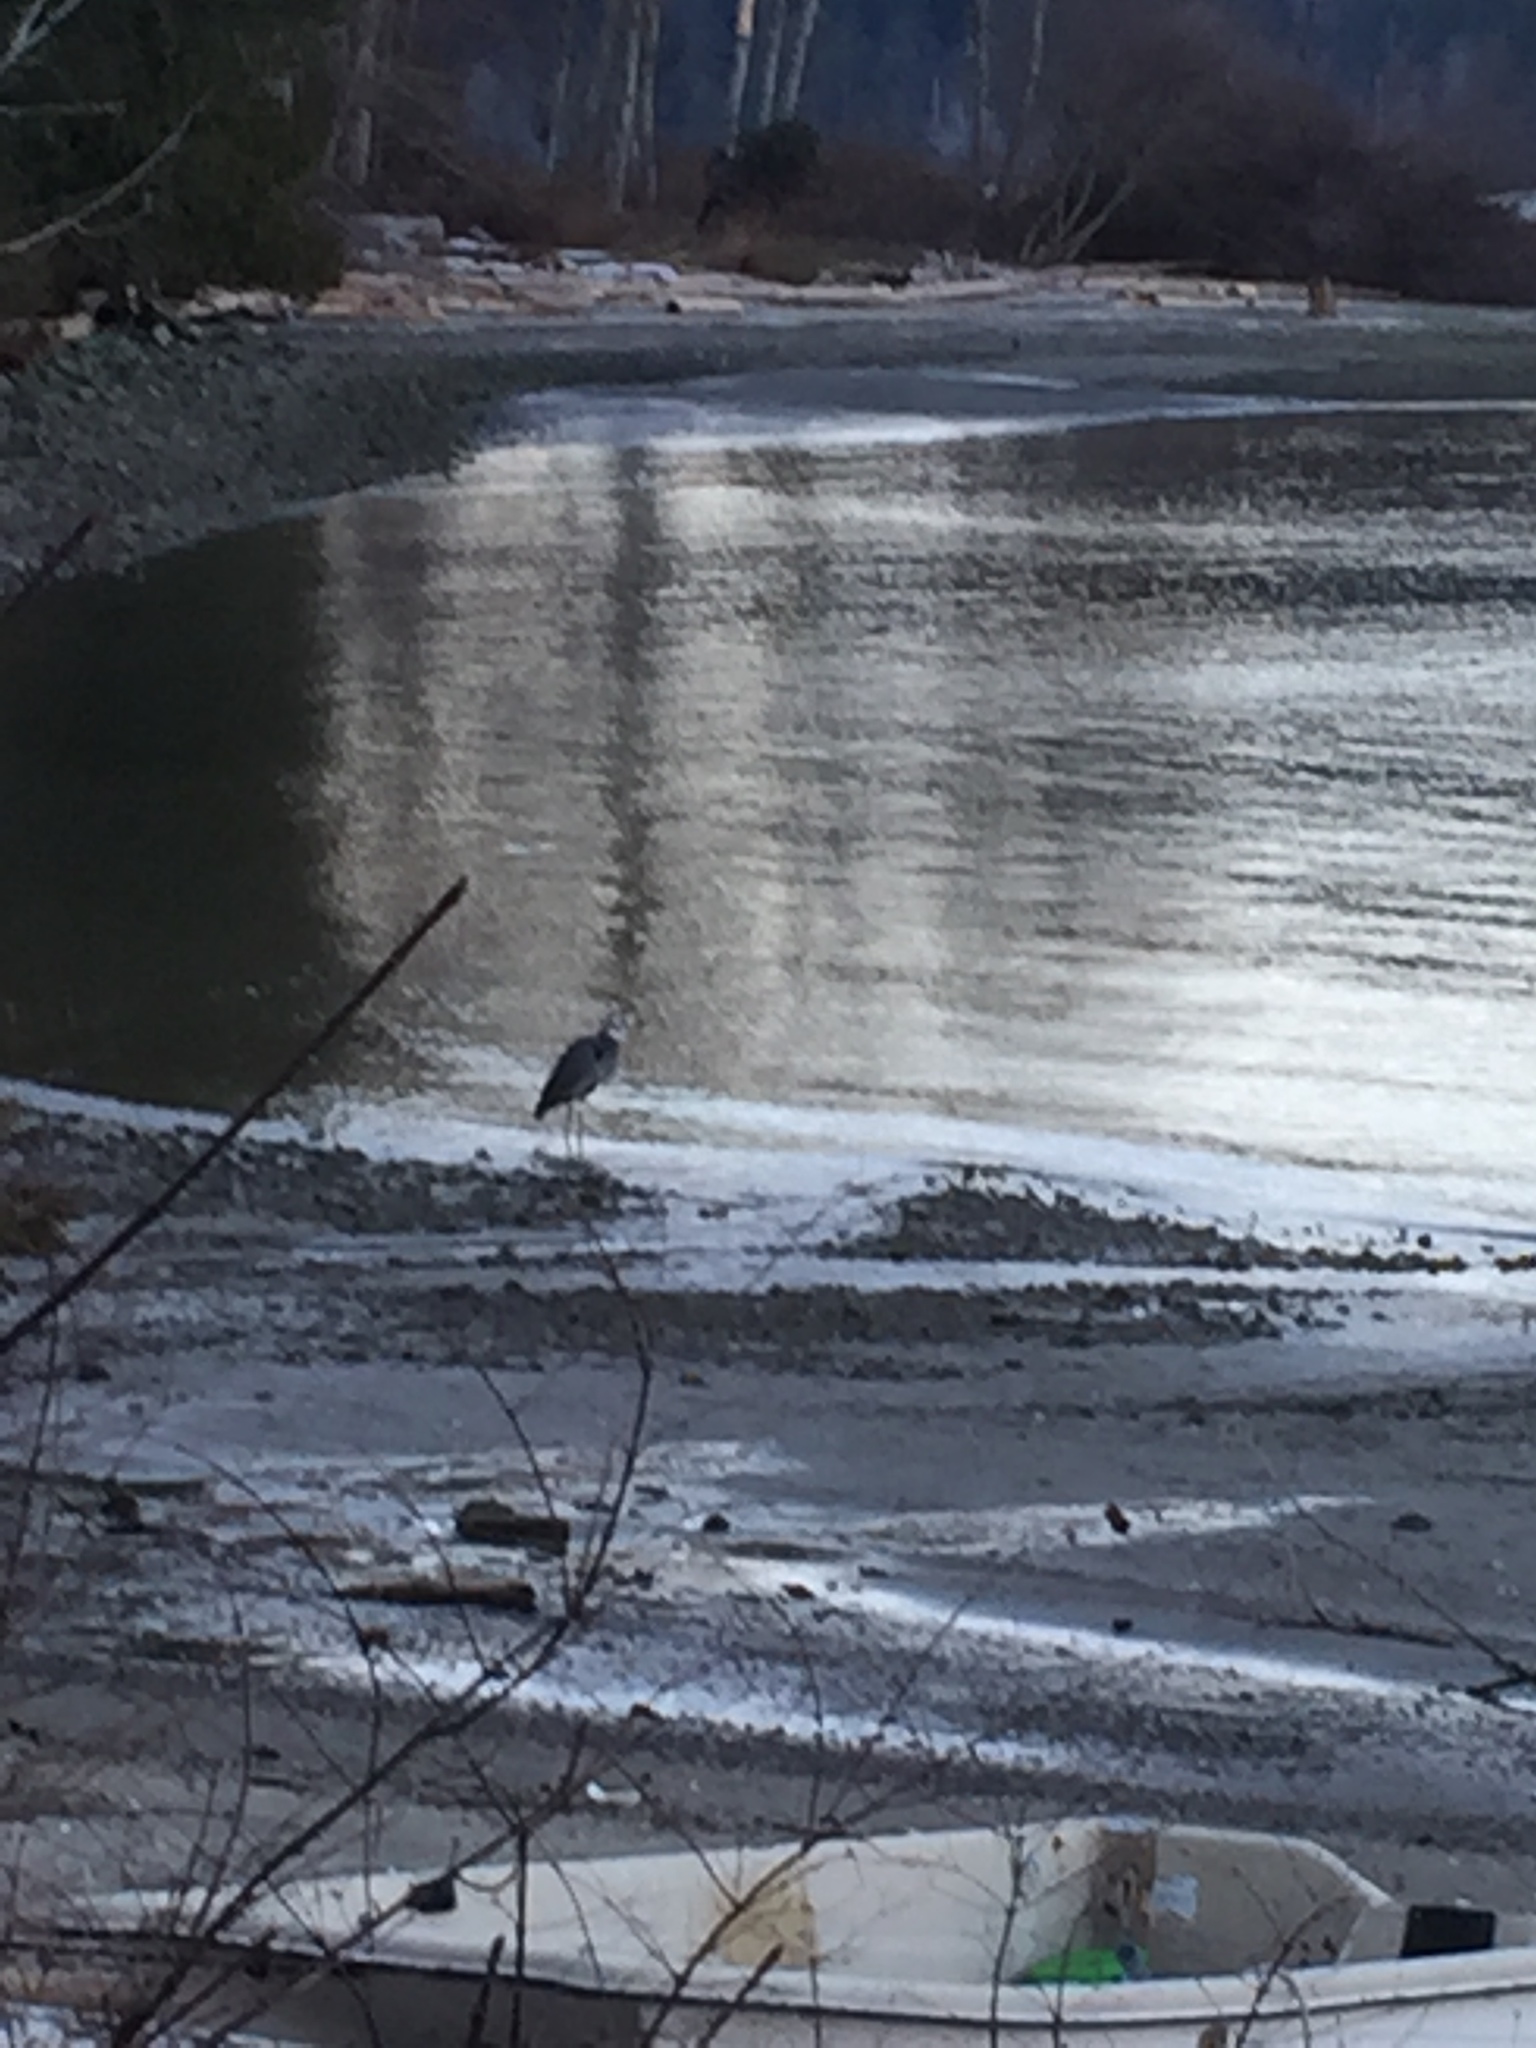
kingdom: Animalia
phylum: Chordata
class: Aves
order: Pelecaniformes
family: Ardeidae
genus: Ardea
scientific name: Ardea herodias
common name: Great blue heron
